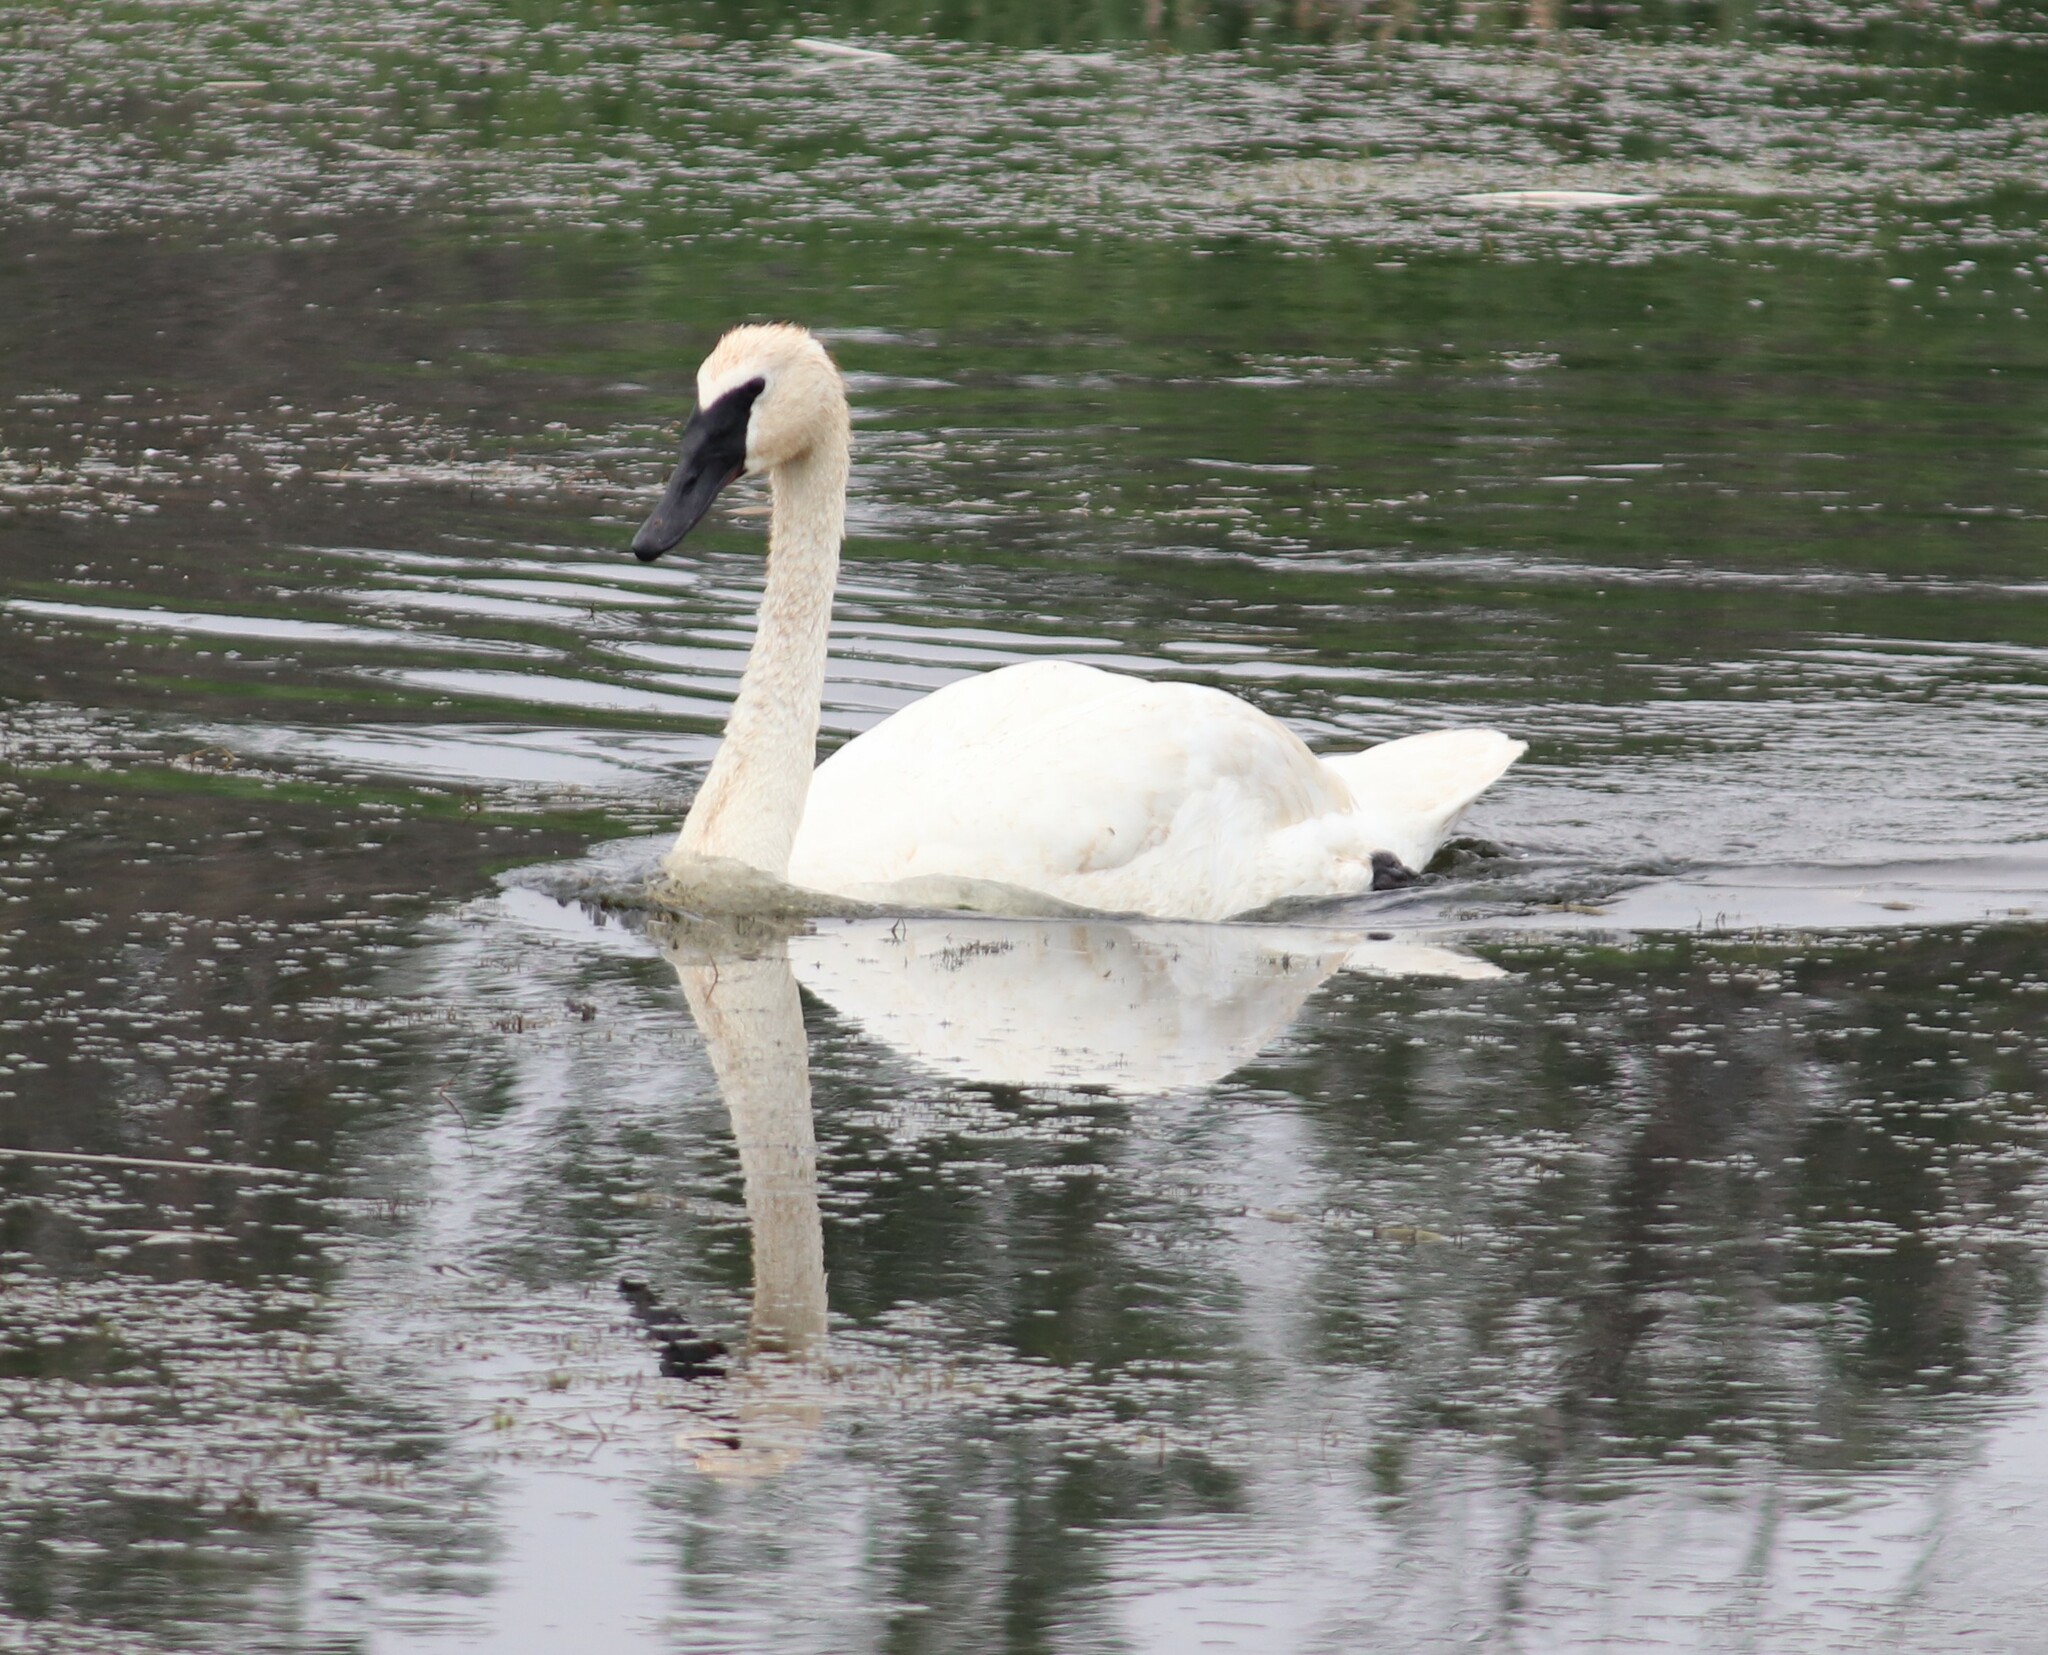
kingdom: Animalia
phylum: Chordata
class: Aves
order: Anseriformes
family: Anatidae
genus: Cygnus
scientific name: Cygnus buccinator
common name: Trumpeter swan
